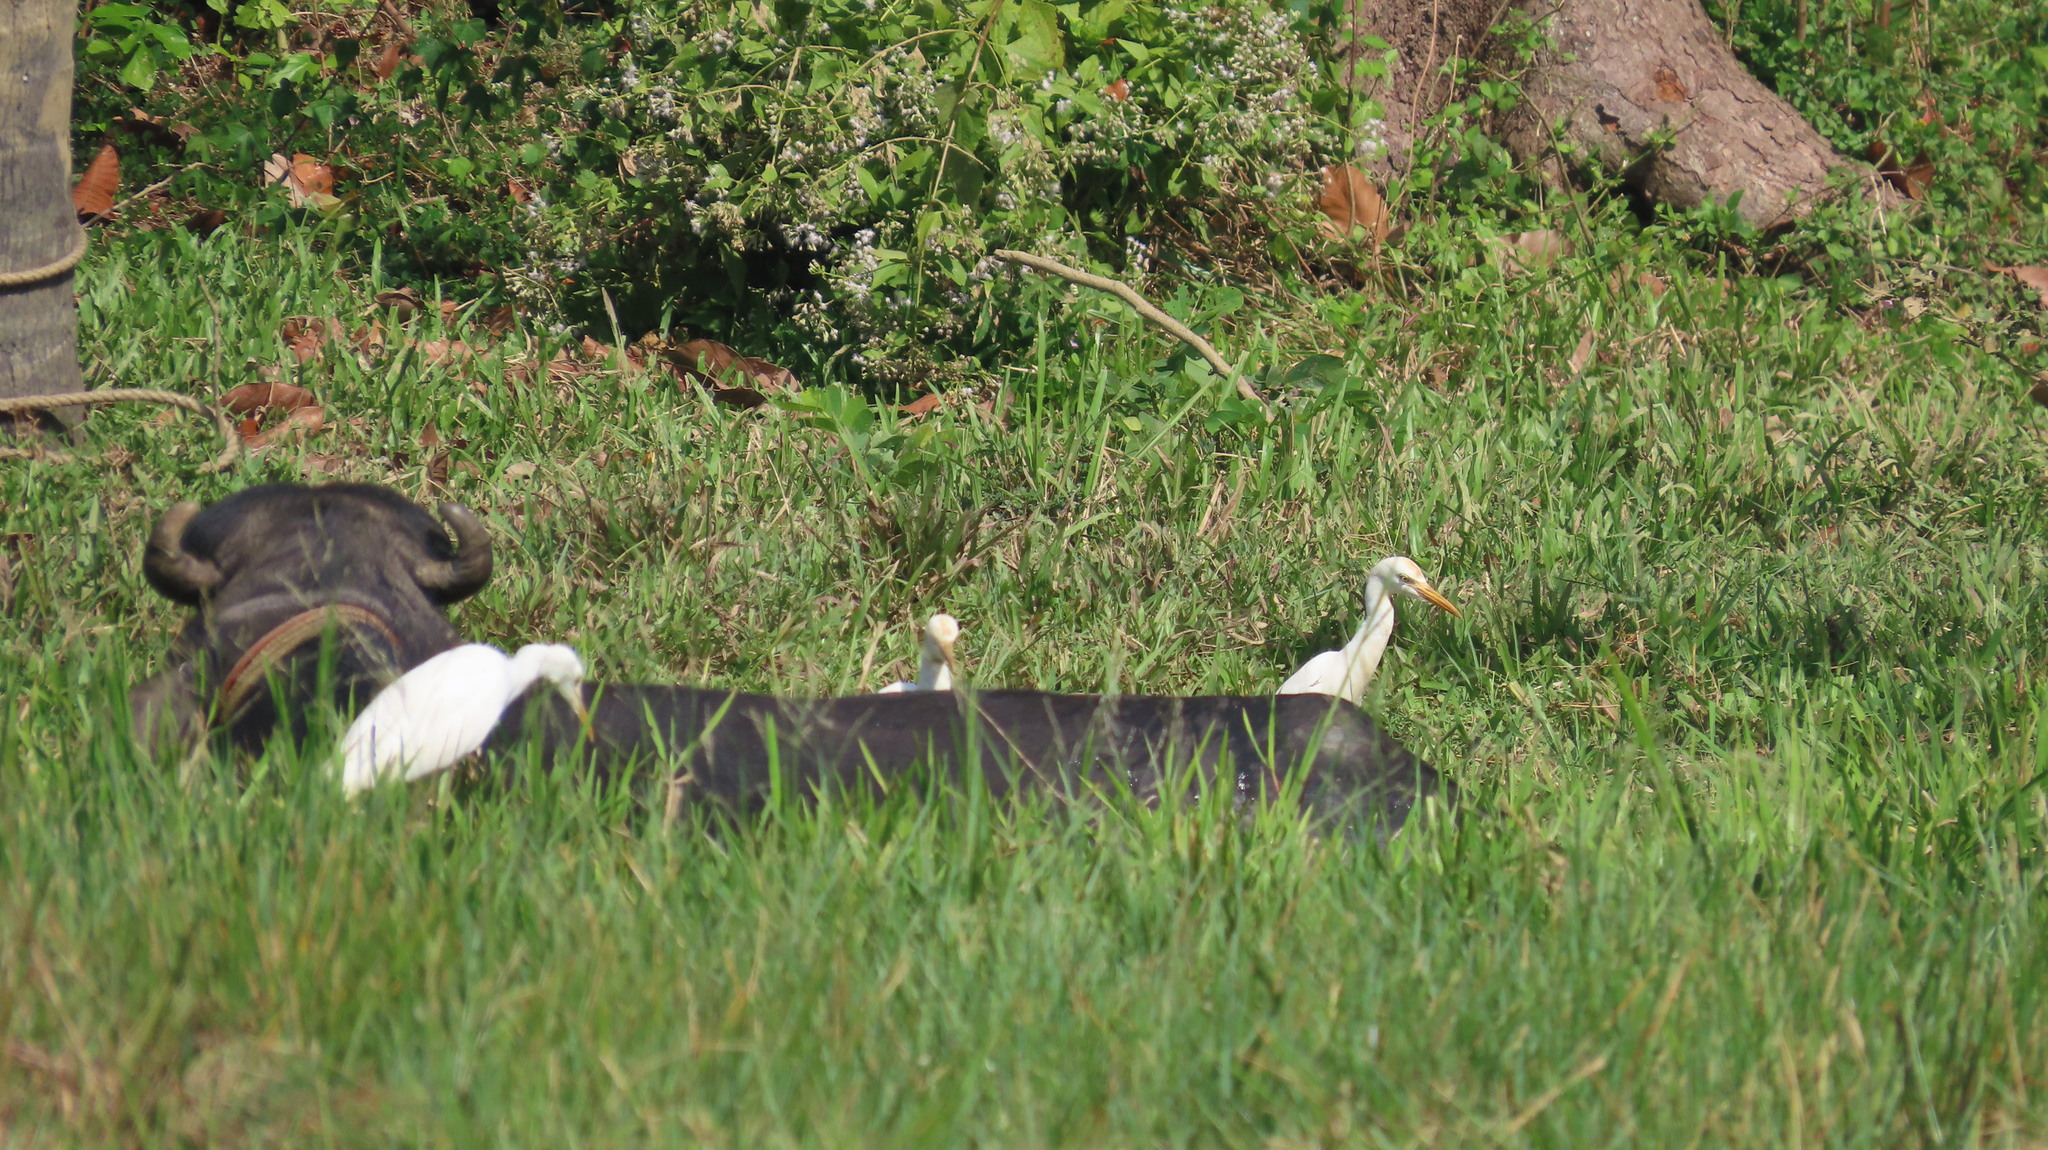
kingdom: Animalia
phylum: Chordata
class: Aves
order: Pelecaniformes
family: Ardeidae
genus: Bubulcus
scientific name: Bubulcus coromandus
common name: Eastern cattle egret
